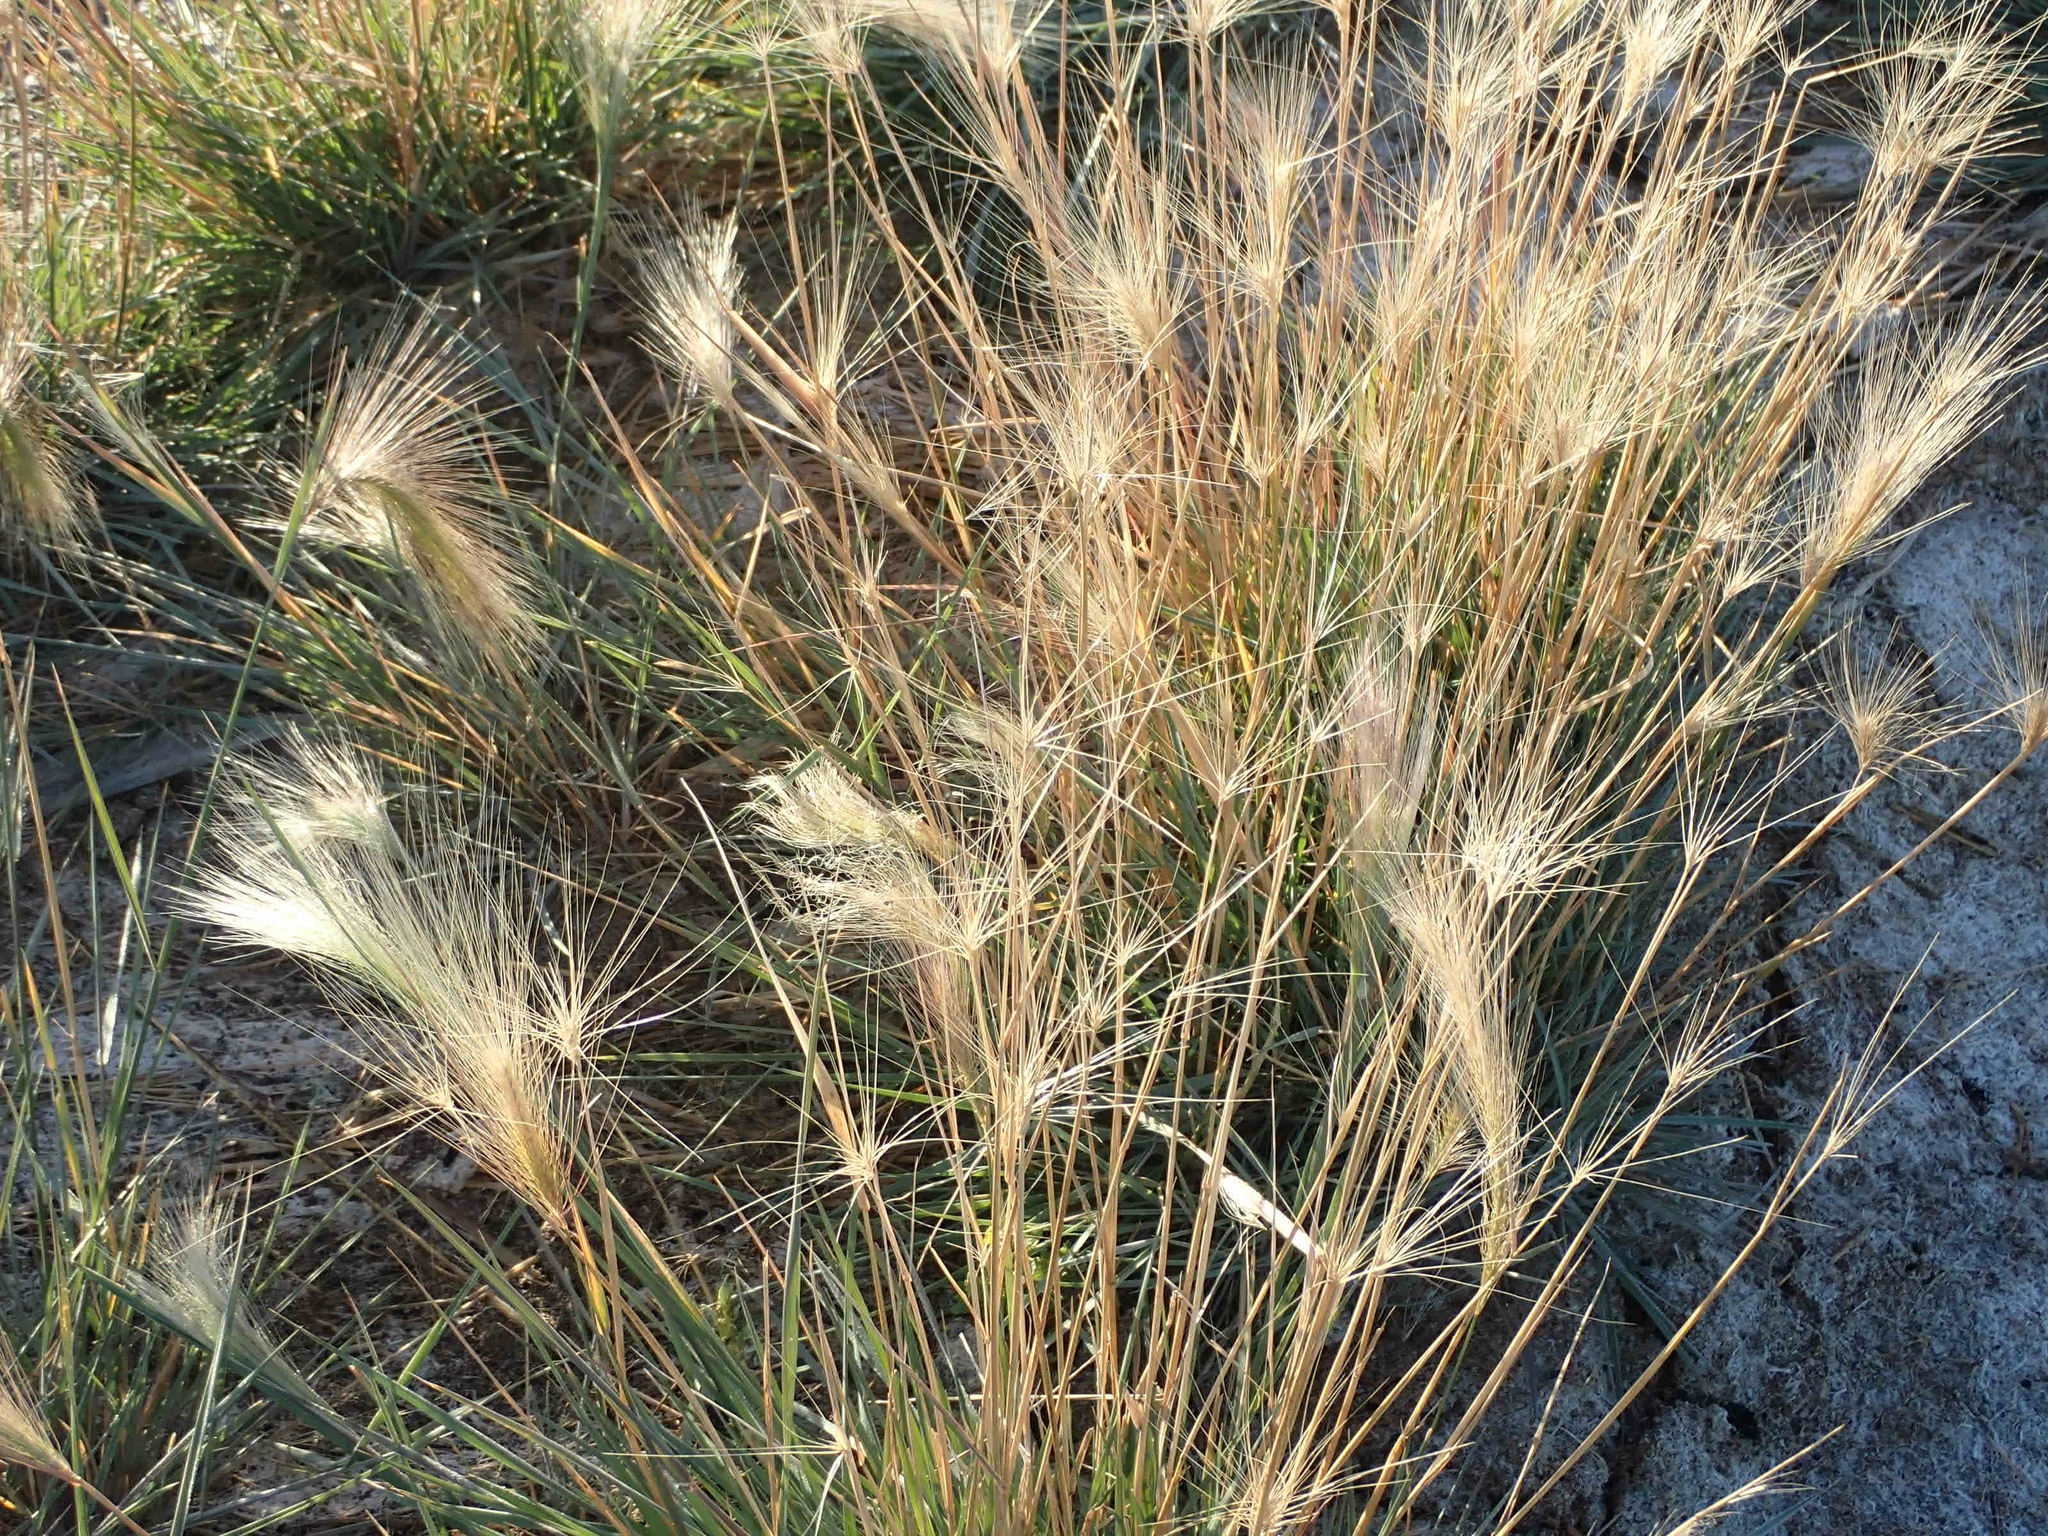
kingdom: Plantae
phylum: Tracheophyta
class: Liliopsida
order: Poales
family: Poaceae
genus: Hordeum
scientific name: Hordeum jubatum
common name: Foxtail barley
